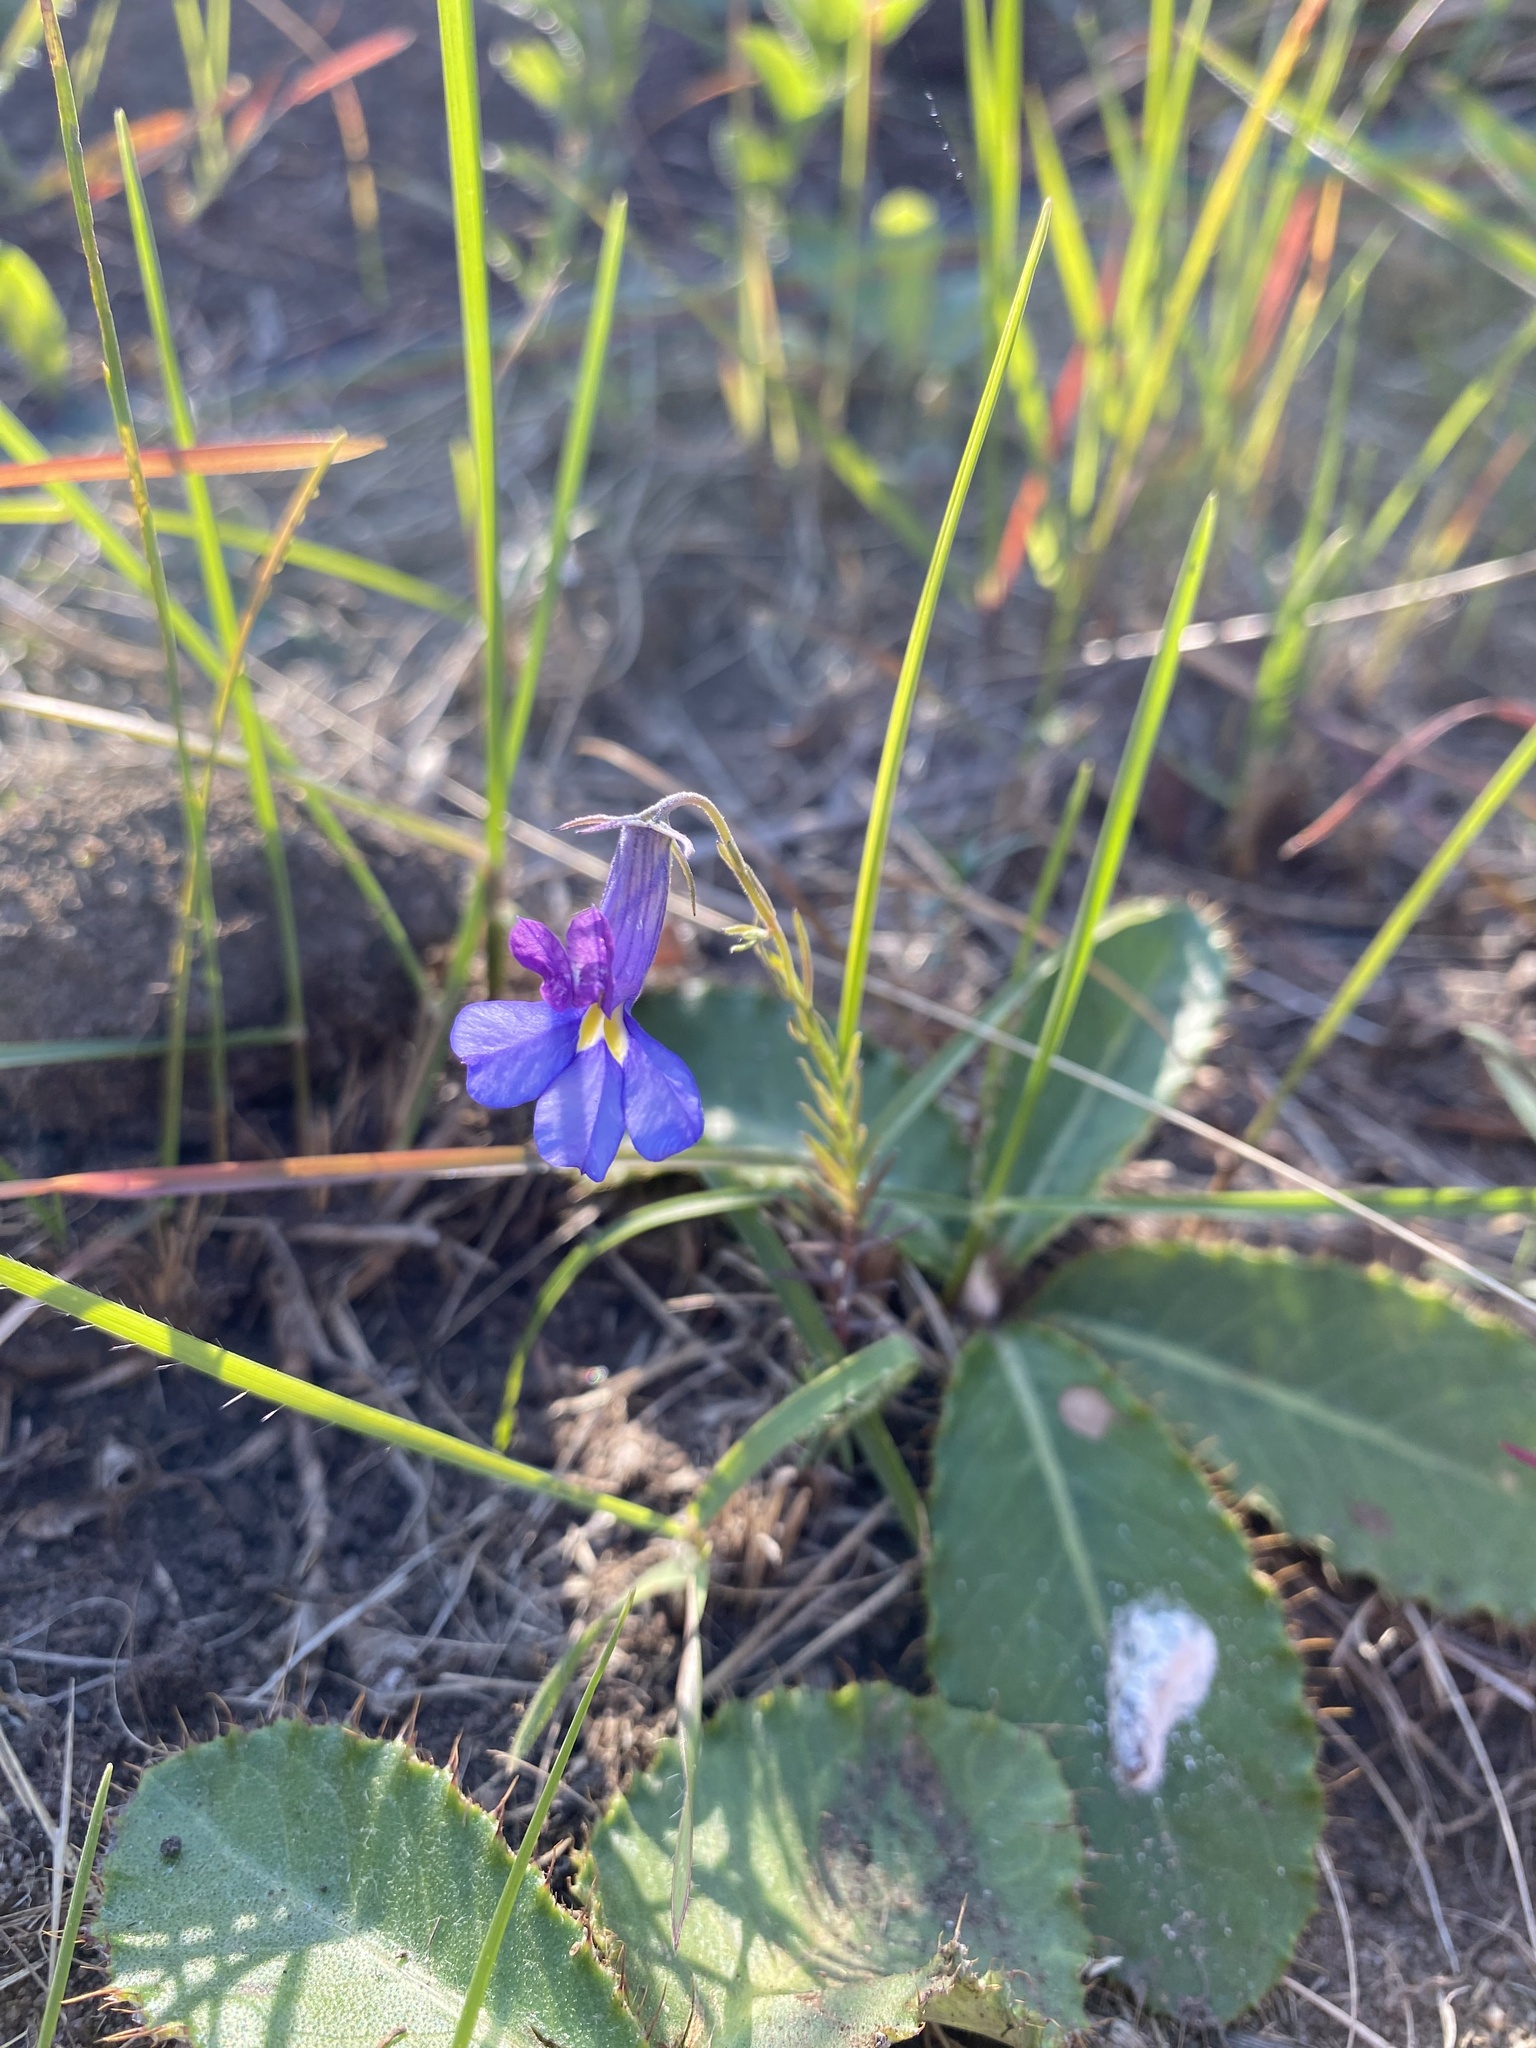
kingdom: Plantae
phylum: Tracheophyta
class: Magnoliopsida
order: Asterales
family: Campanulaceae
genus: Monopsis
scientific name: Monopsis decipiens
